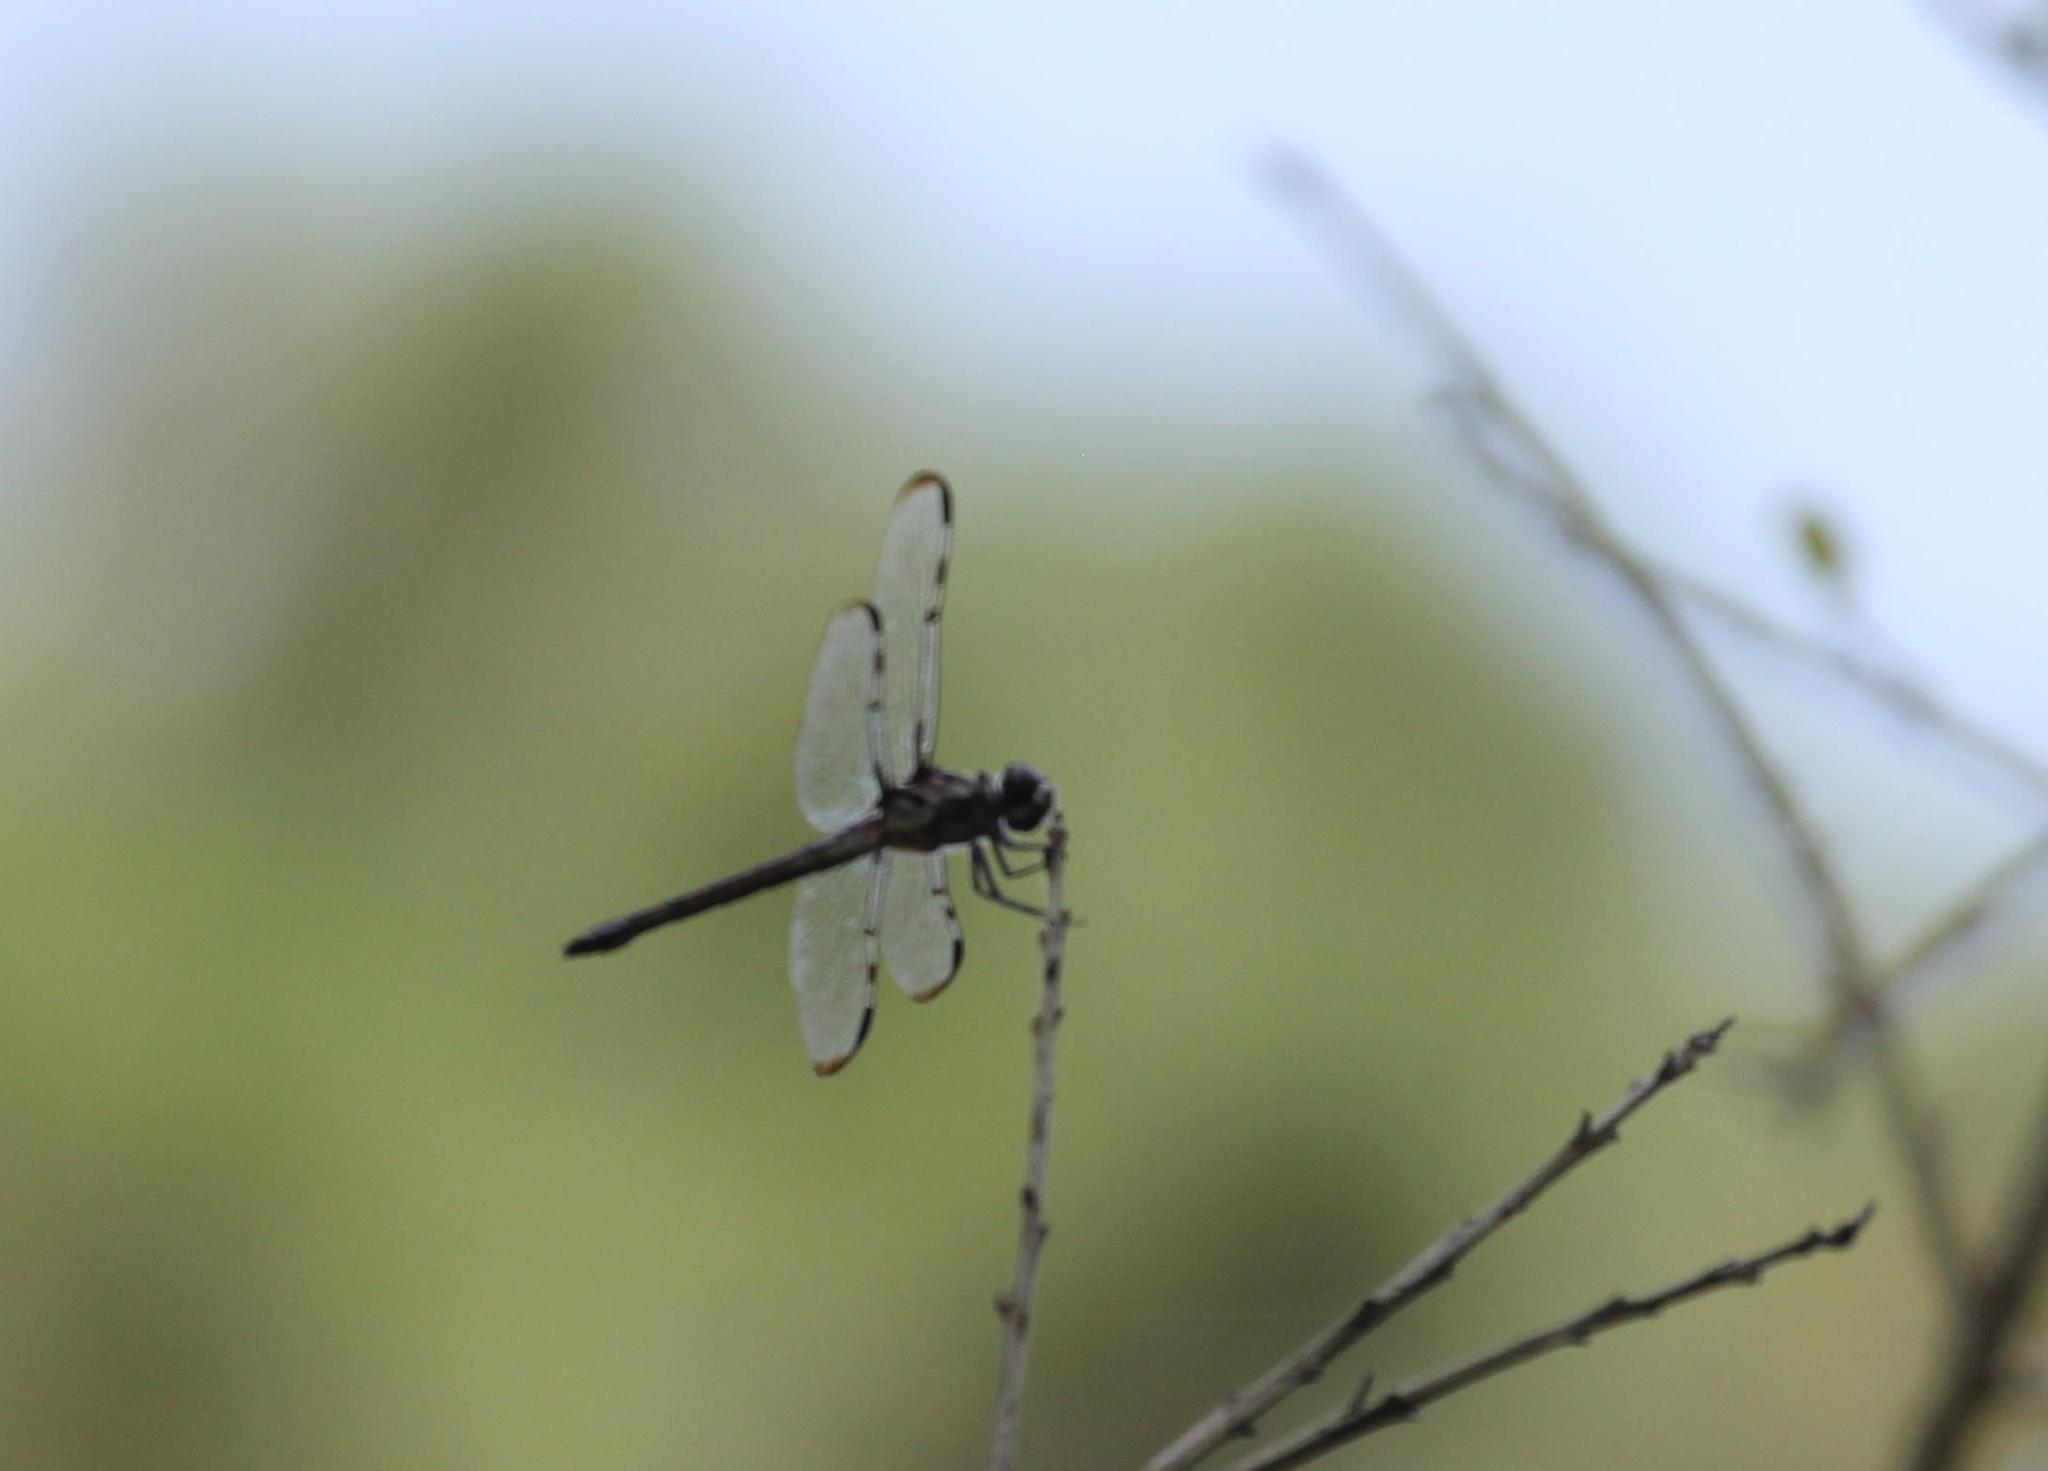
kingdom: Animalia
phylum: Arthropoda
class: Insecta
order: Odonata
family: Libellulidae
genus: Libellula
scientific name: Libellula axilena
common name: Bar-winged skimmer
